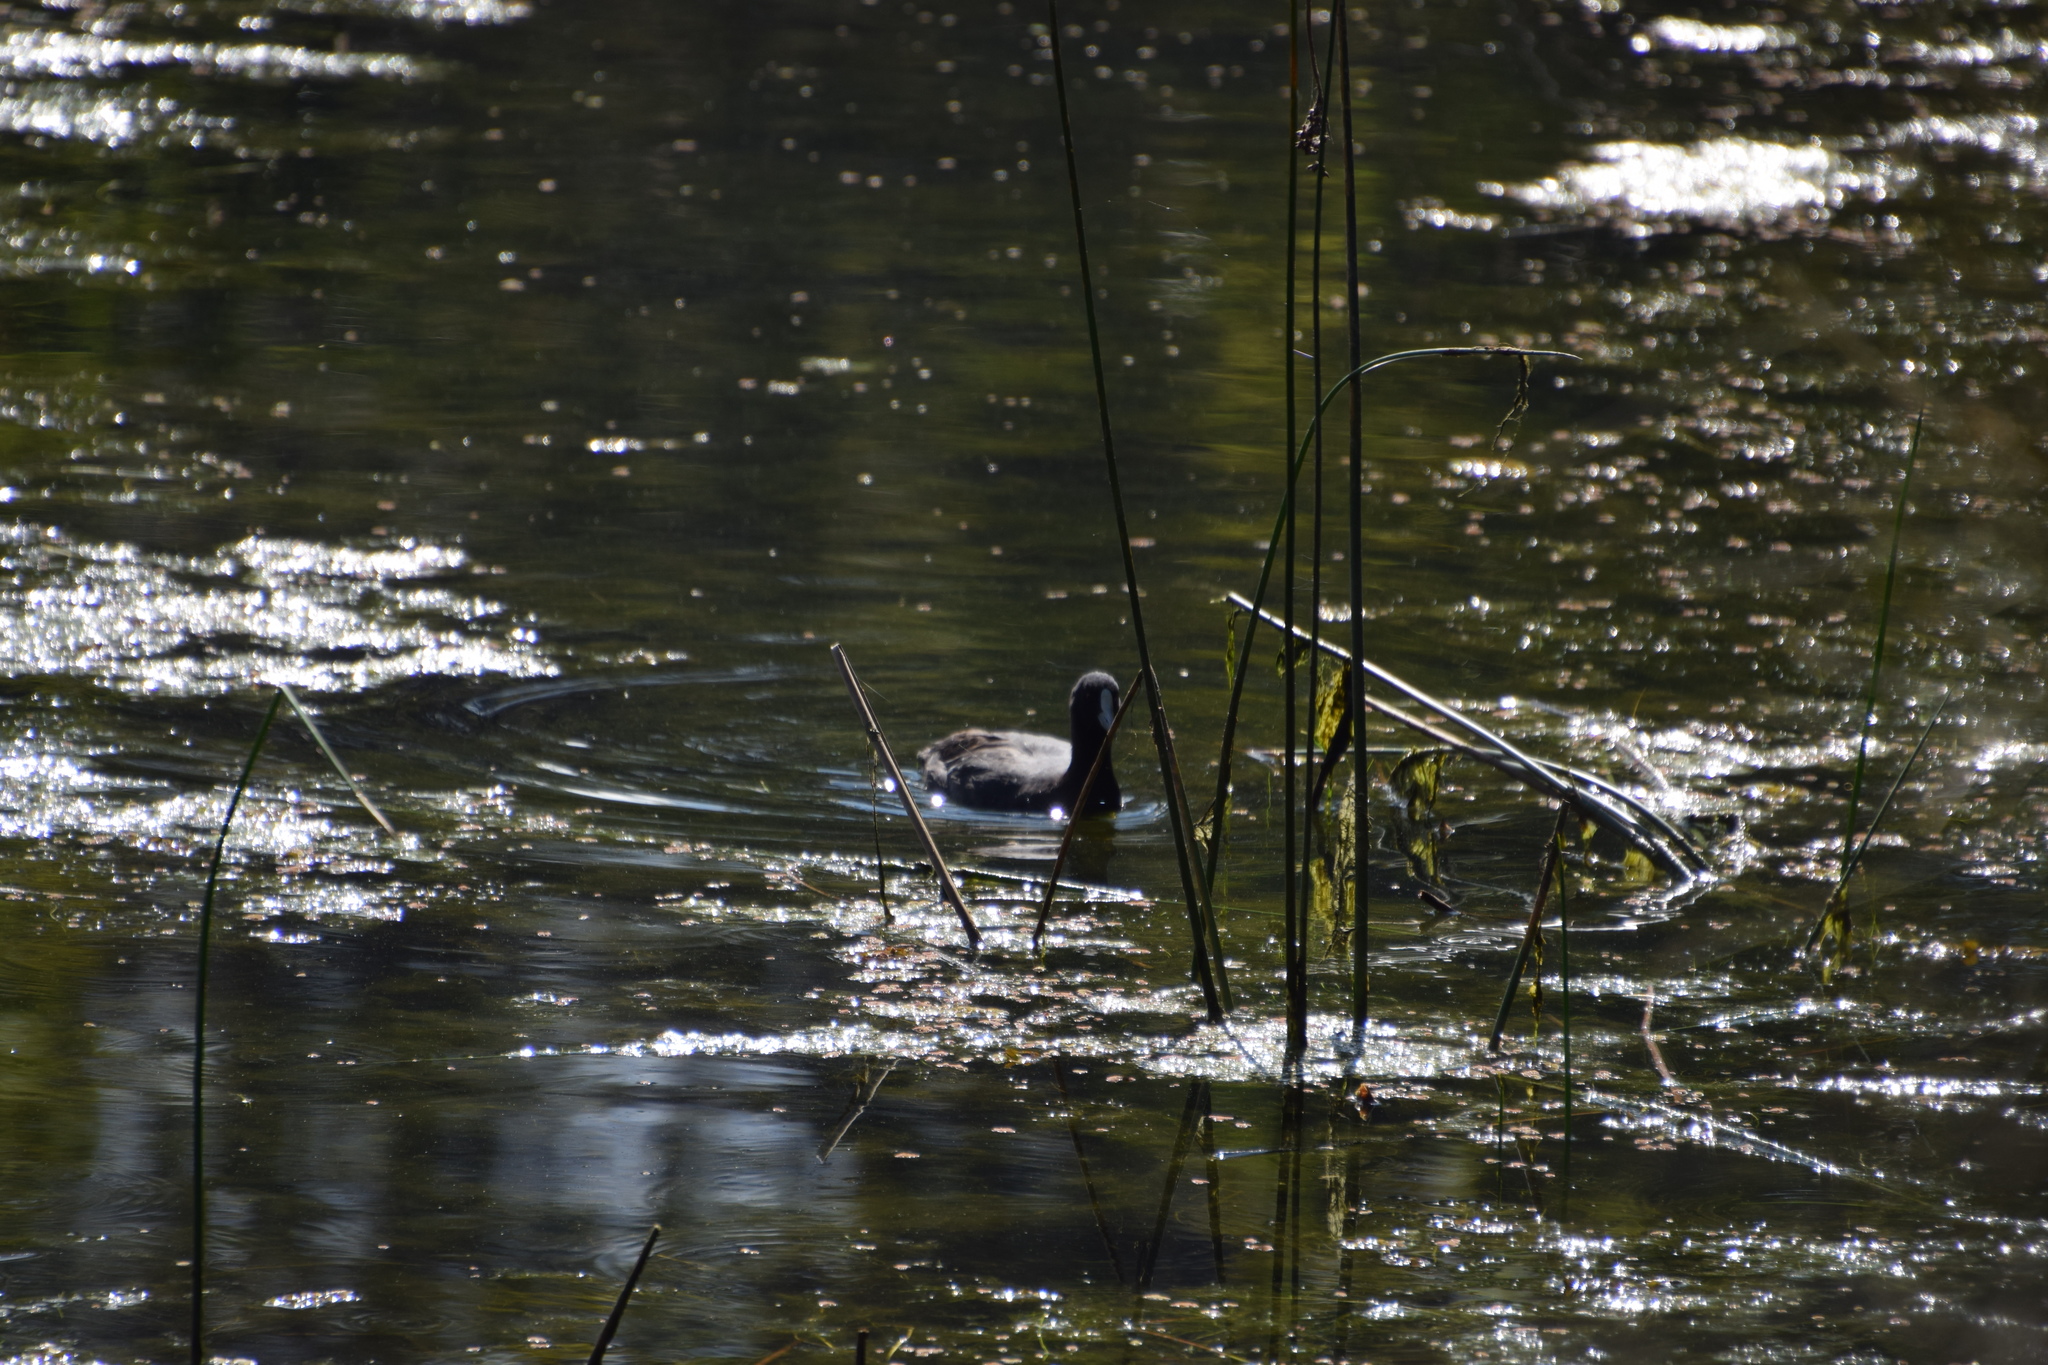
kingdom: Animalia
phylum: Chordata
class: Aves
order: Gruiformes
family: Rallidae
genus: Fulica
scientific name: Fulica atra
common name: Eurasian coot
